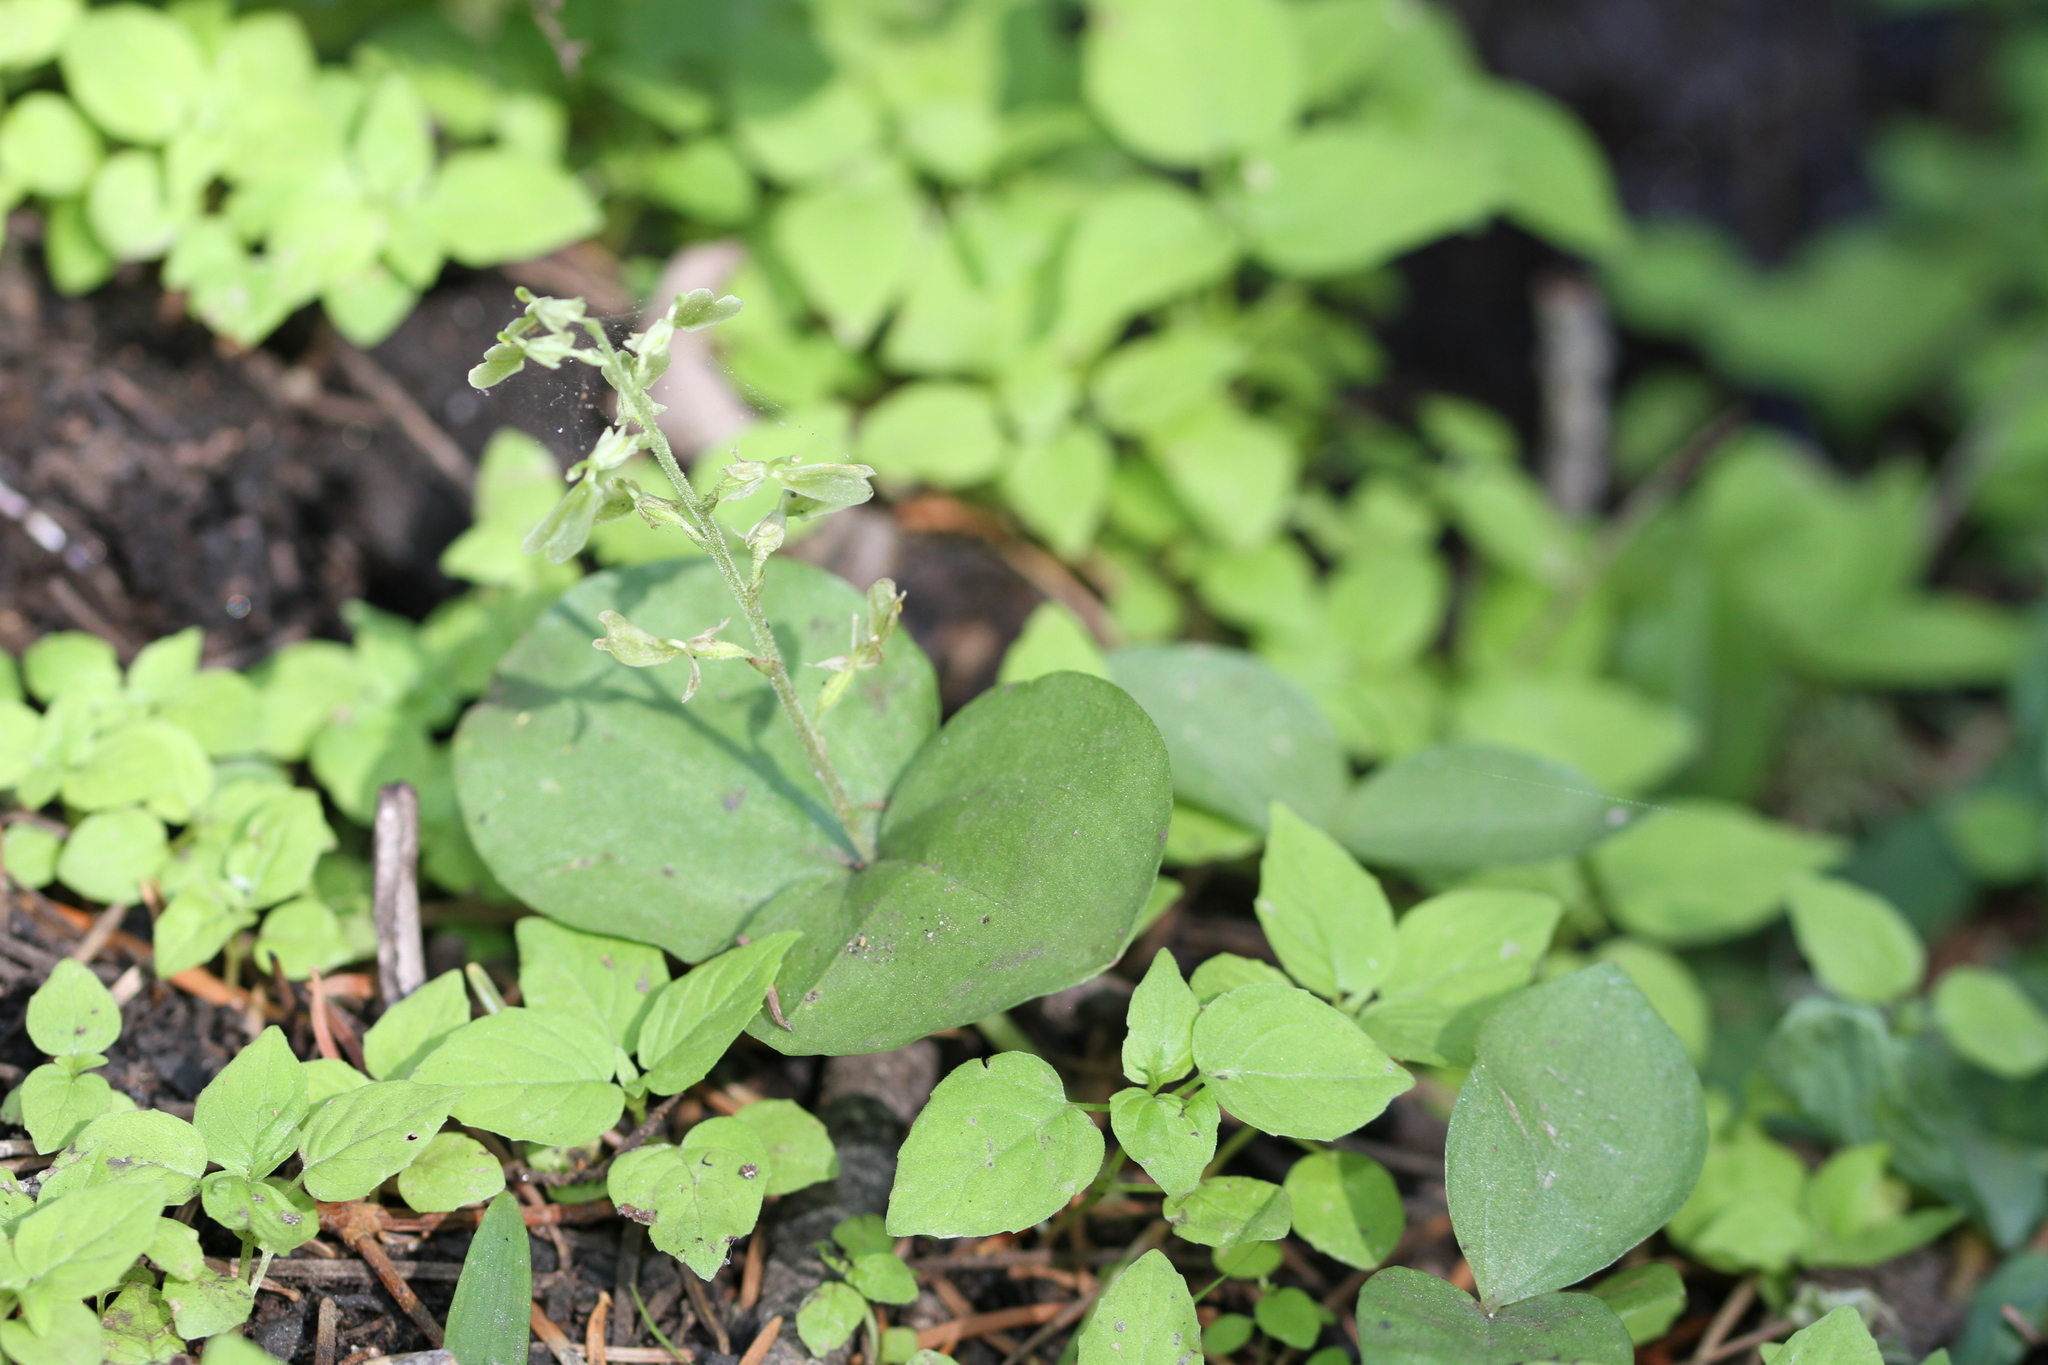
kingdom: Plantae
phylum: Tracheophyta
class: Liliopsida
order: Asparagales
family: Orchidaceae
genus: Neottia
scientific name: Neottia convallarioides
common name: Broadleaf twayblade
